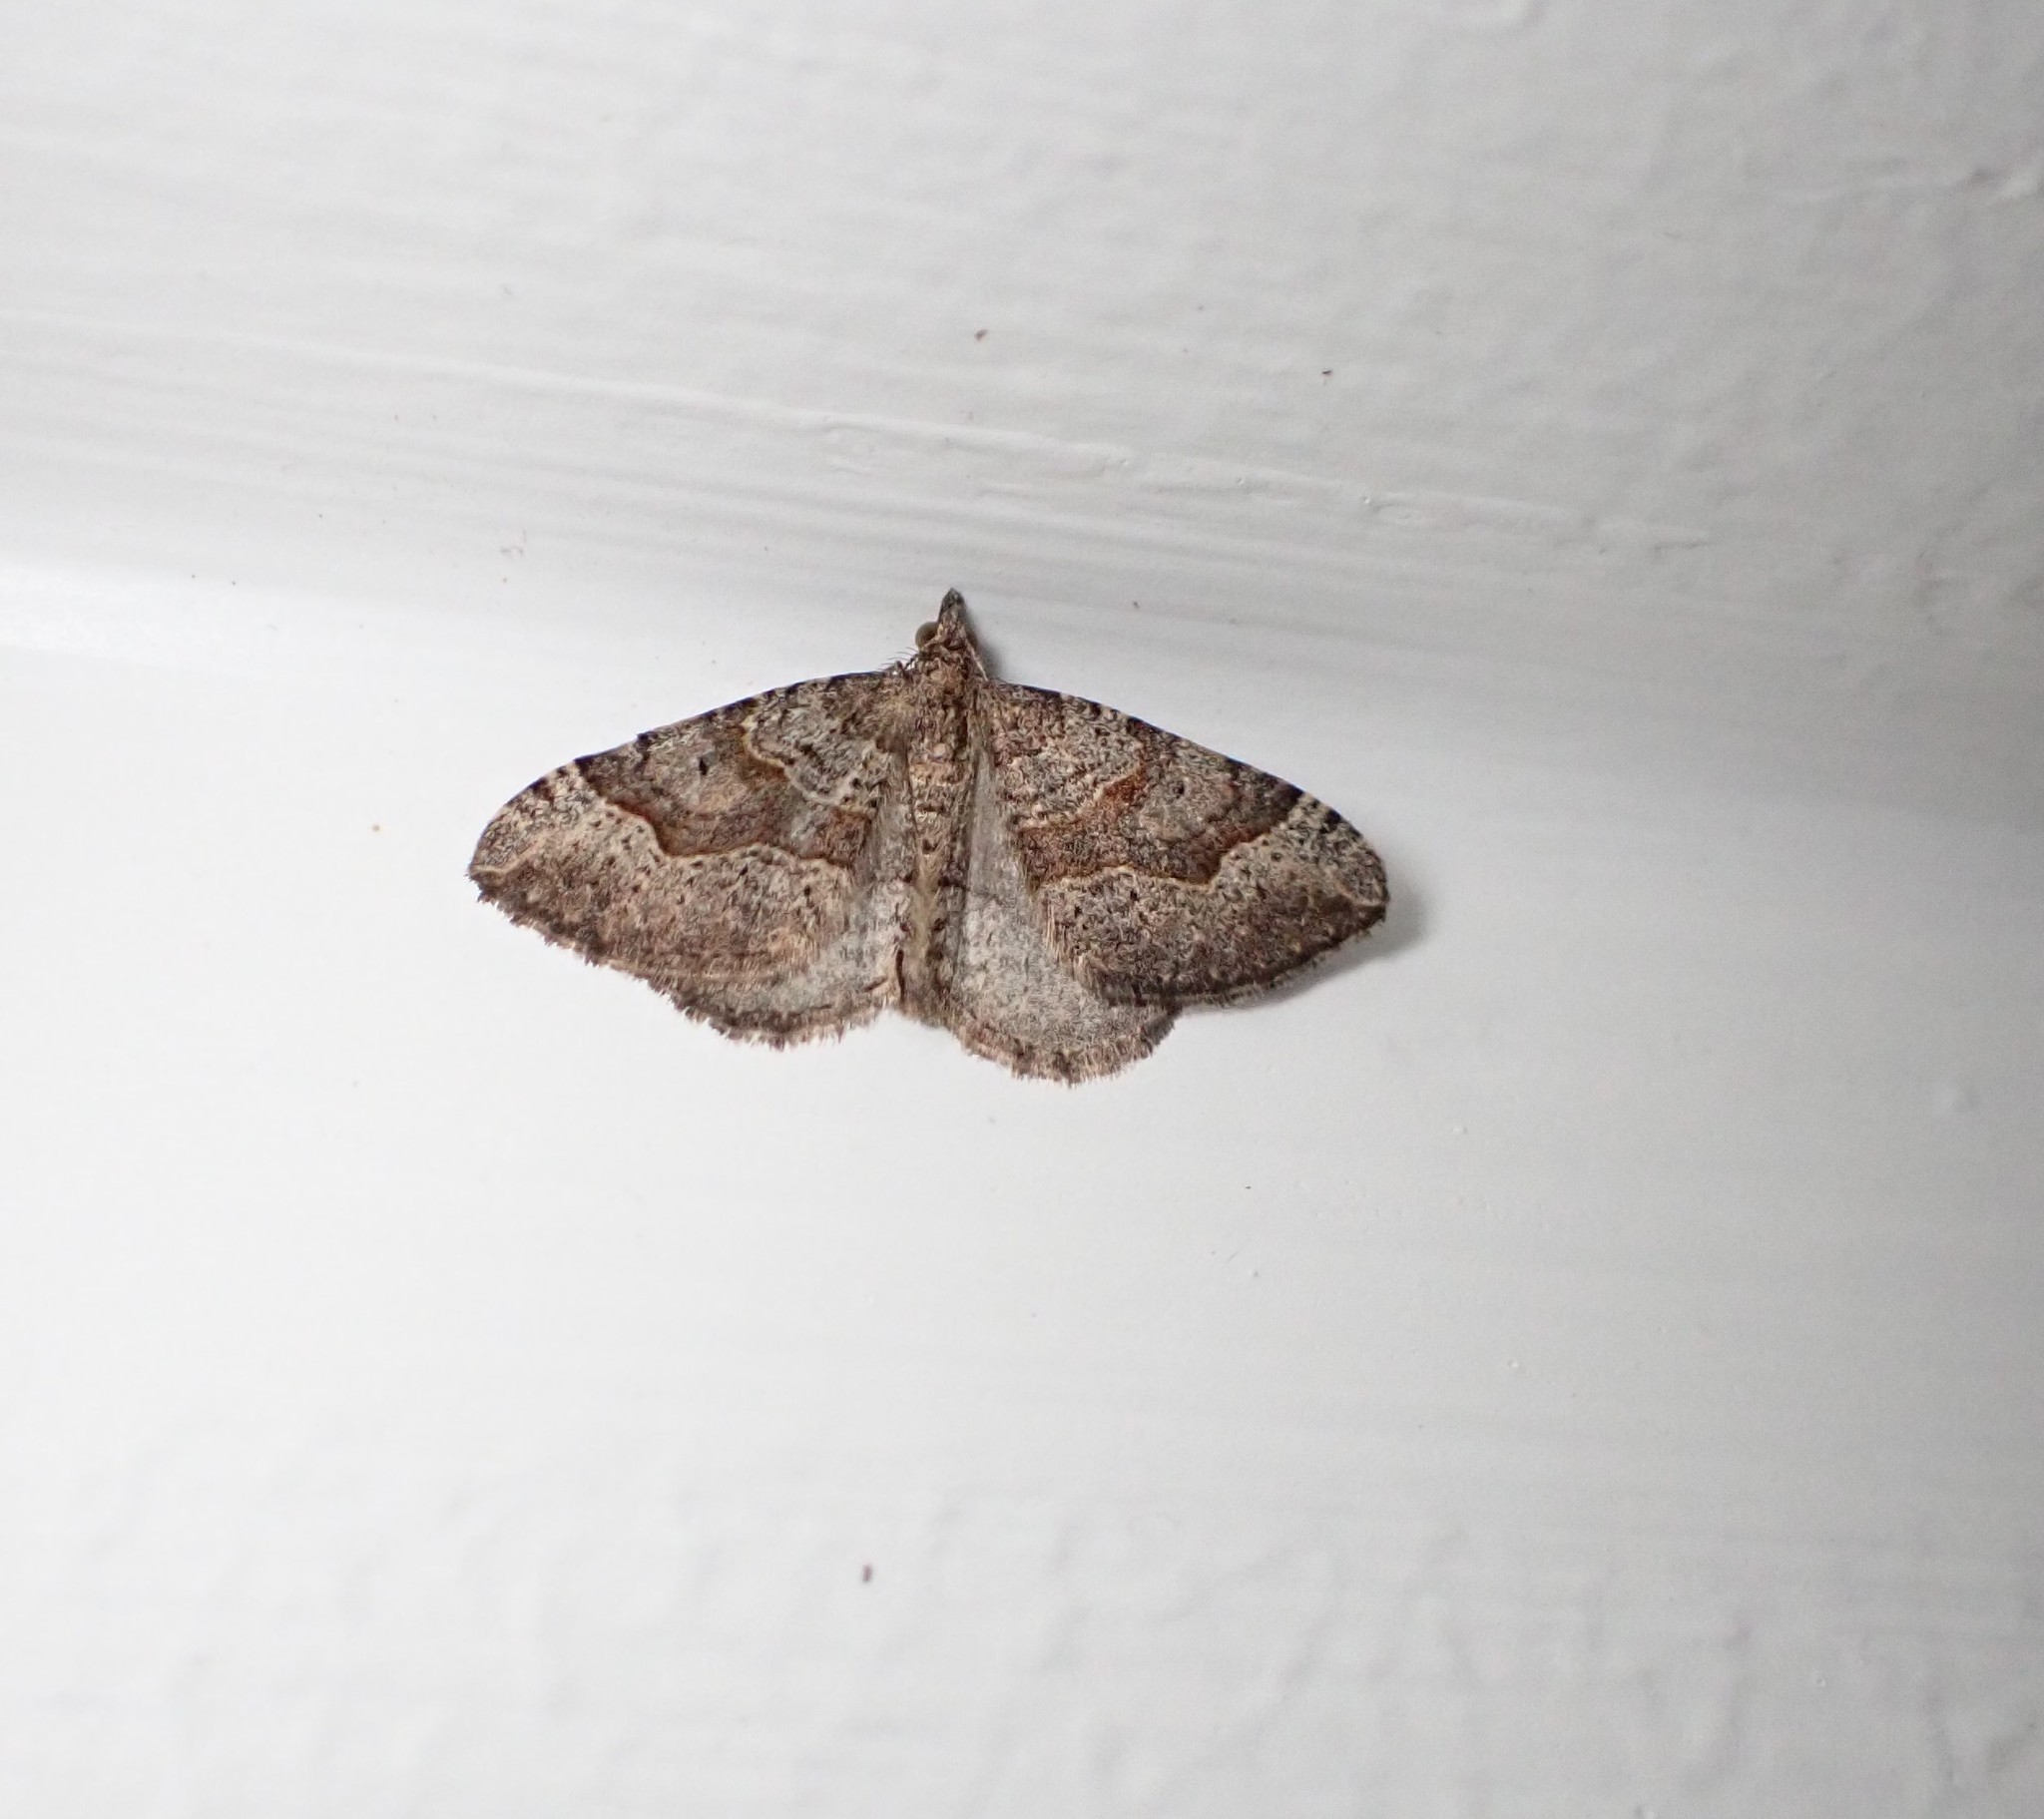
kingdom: Animalia
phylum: Arthropoda
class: Insecta
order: Lepidoptera
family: Geometridae
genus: Epyaxa
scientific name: Epyaxa rosearia
